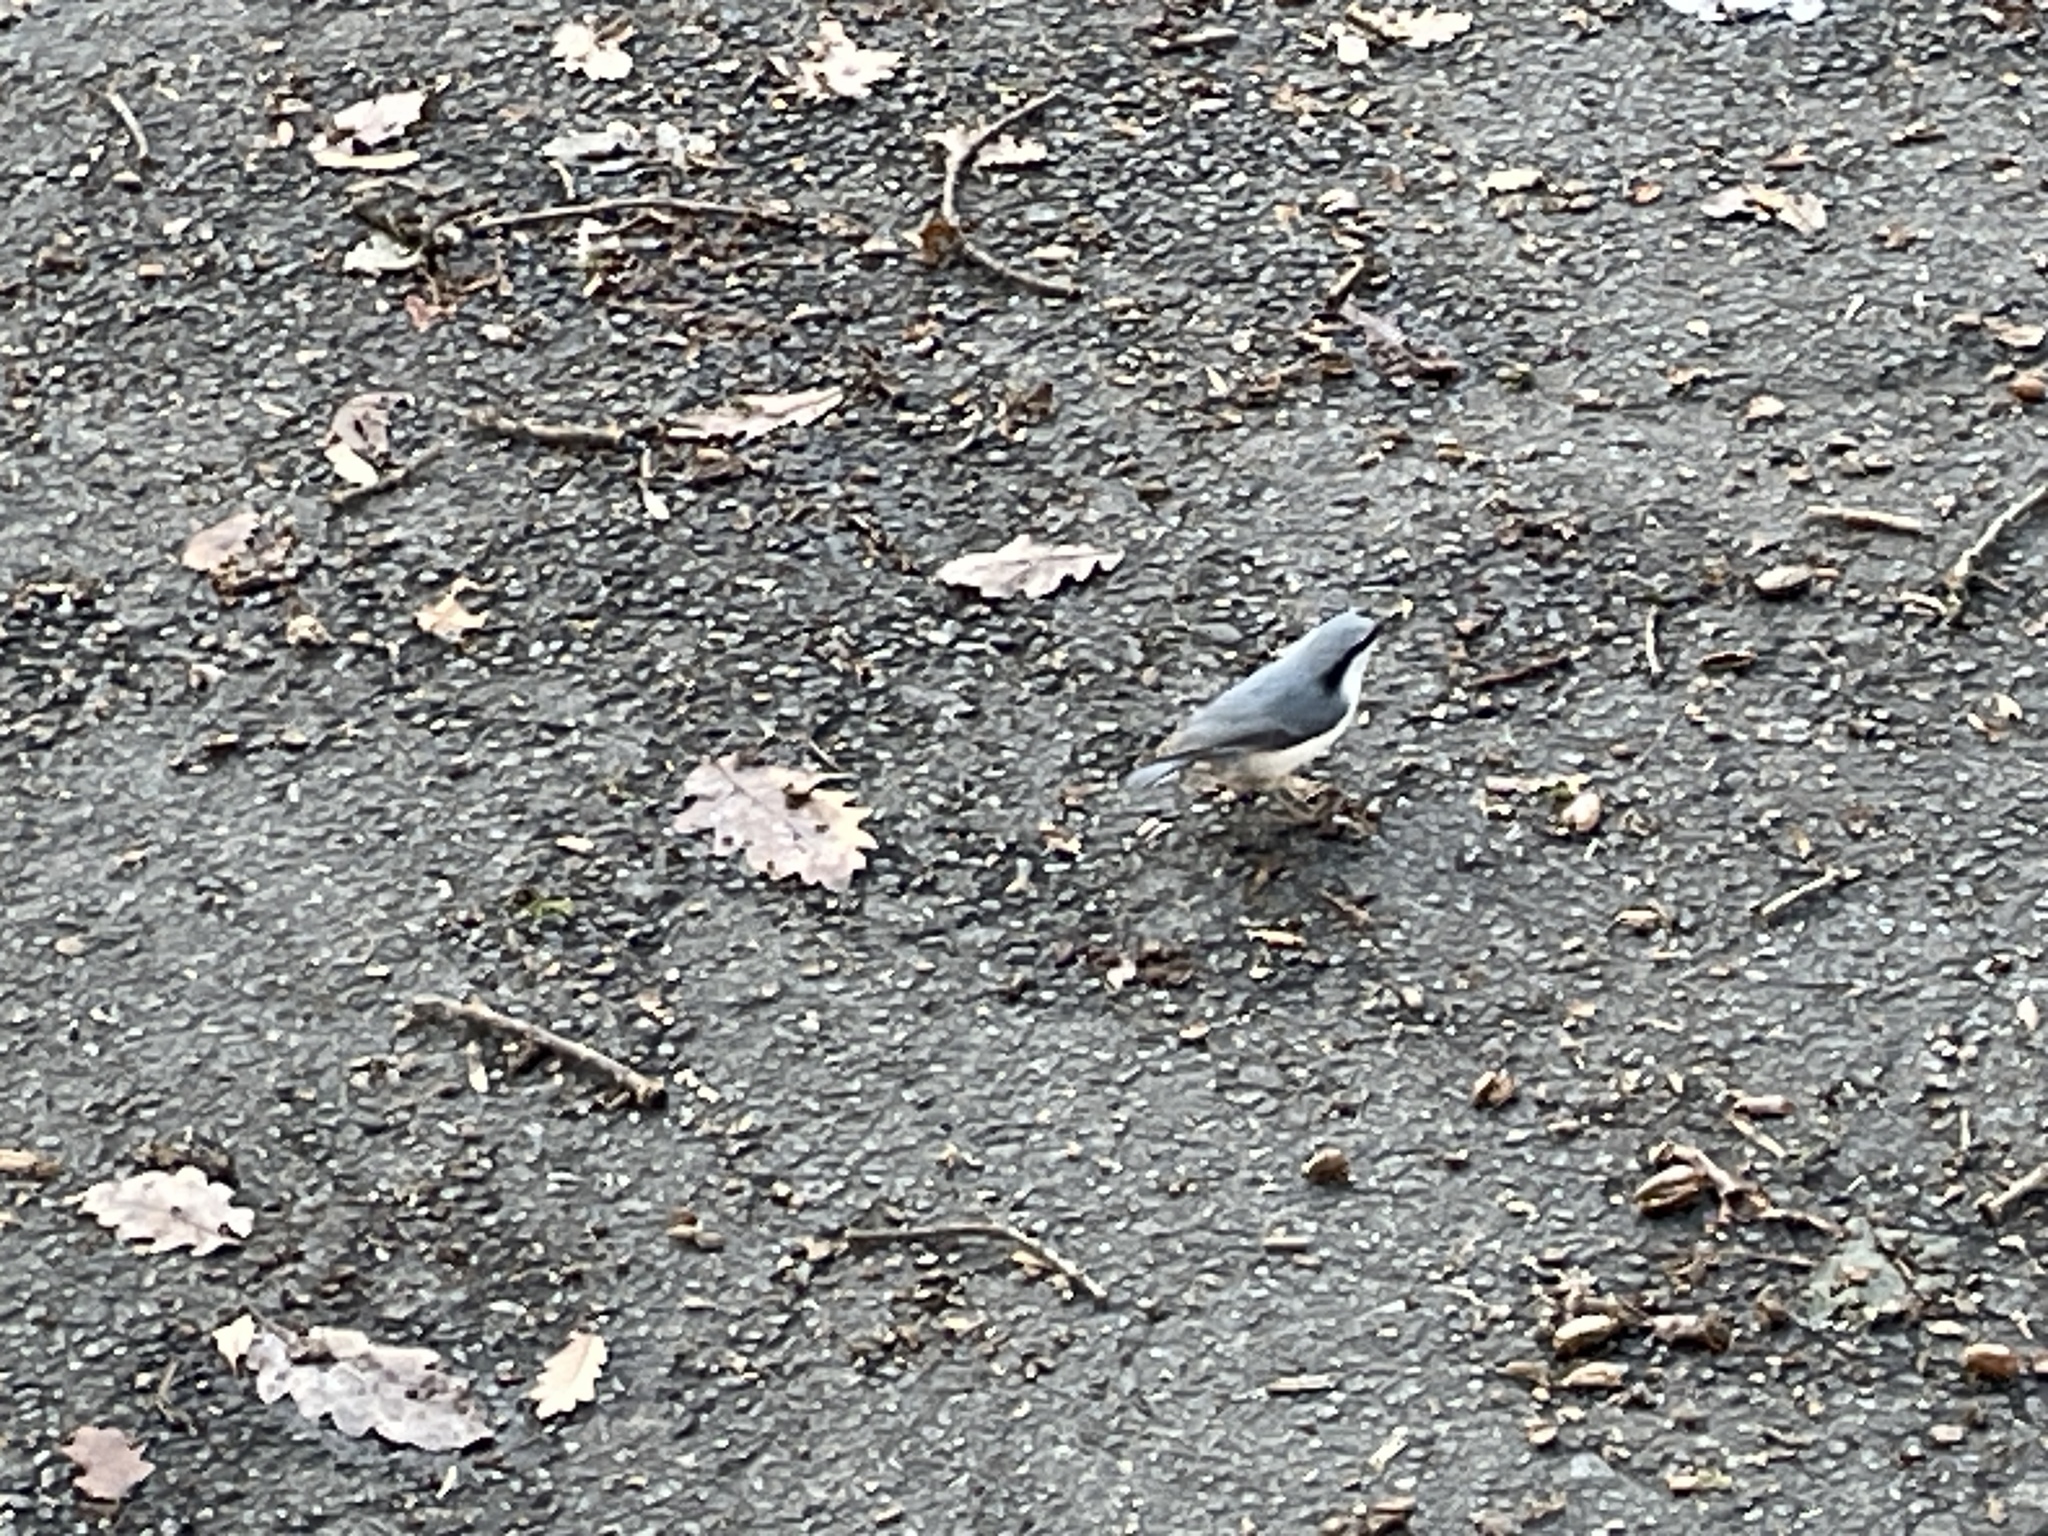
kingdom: Animalia
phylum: Chordata
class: Aves
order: Passeriformes
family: Sittidae
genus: Sitta
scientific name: Sitta europaea
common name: Eurasian nuthatch
